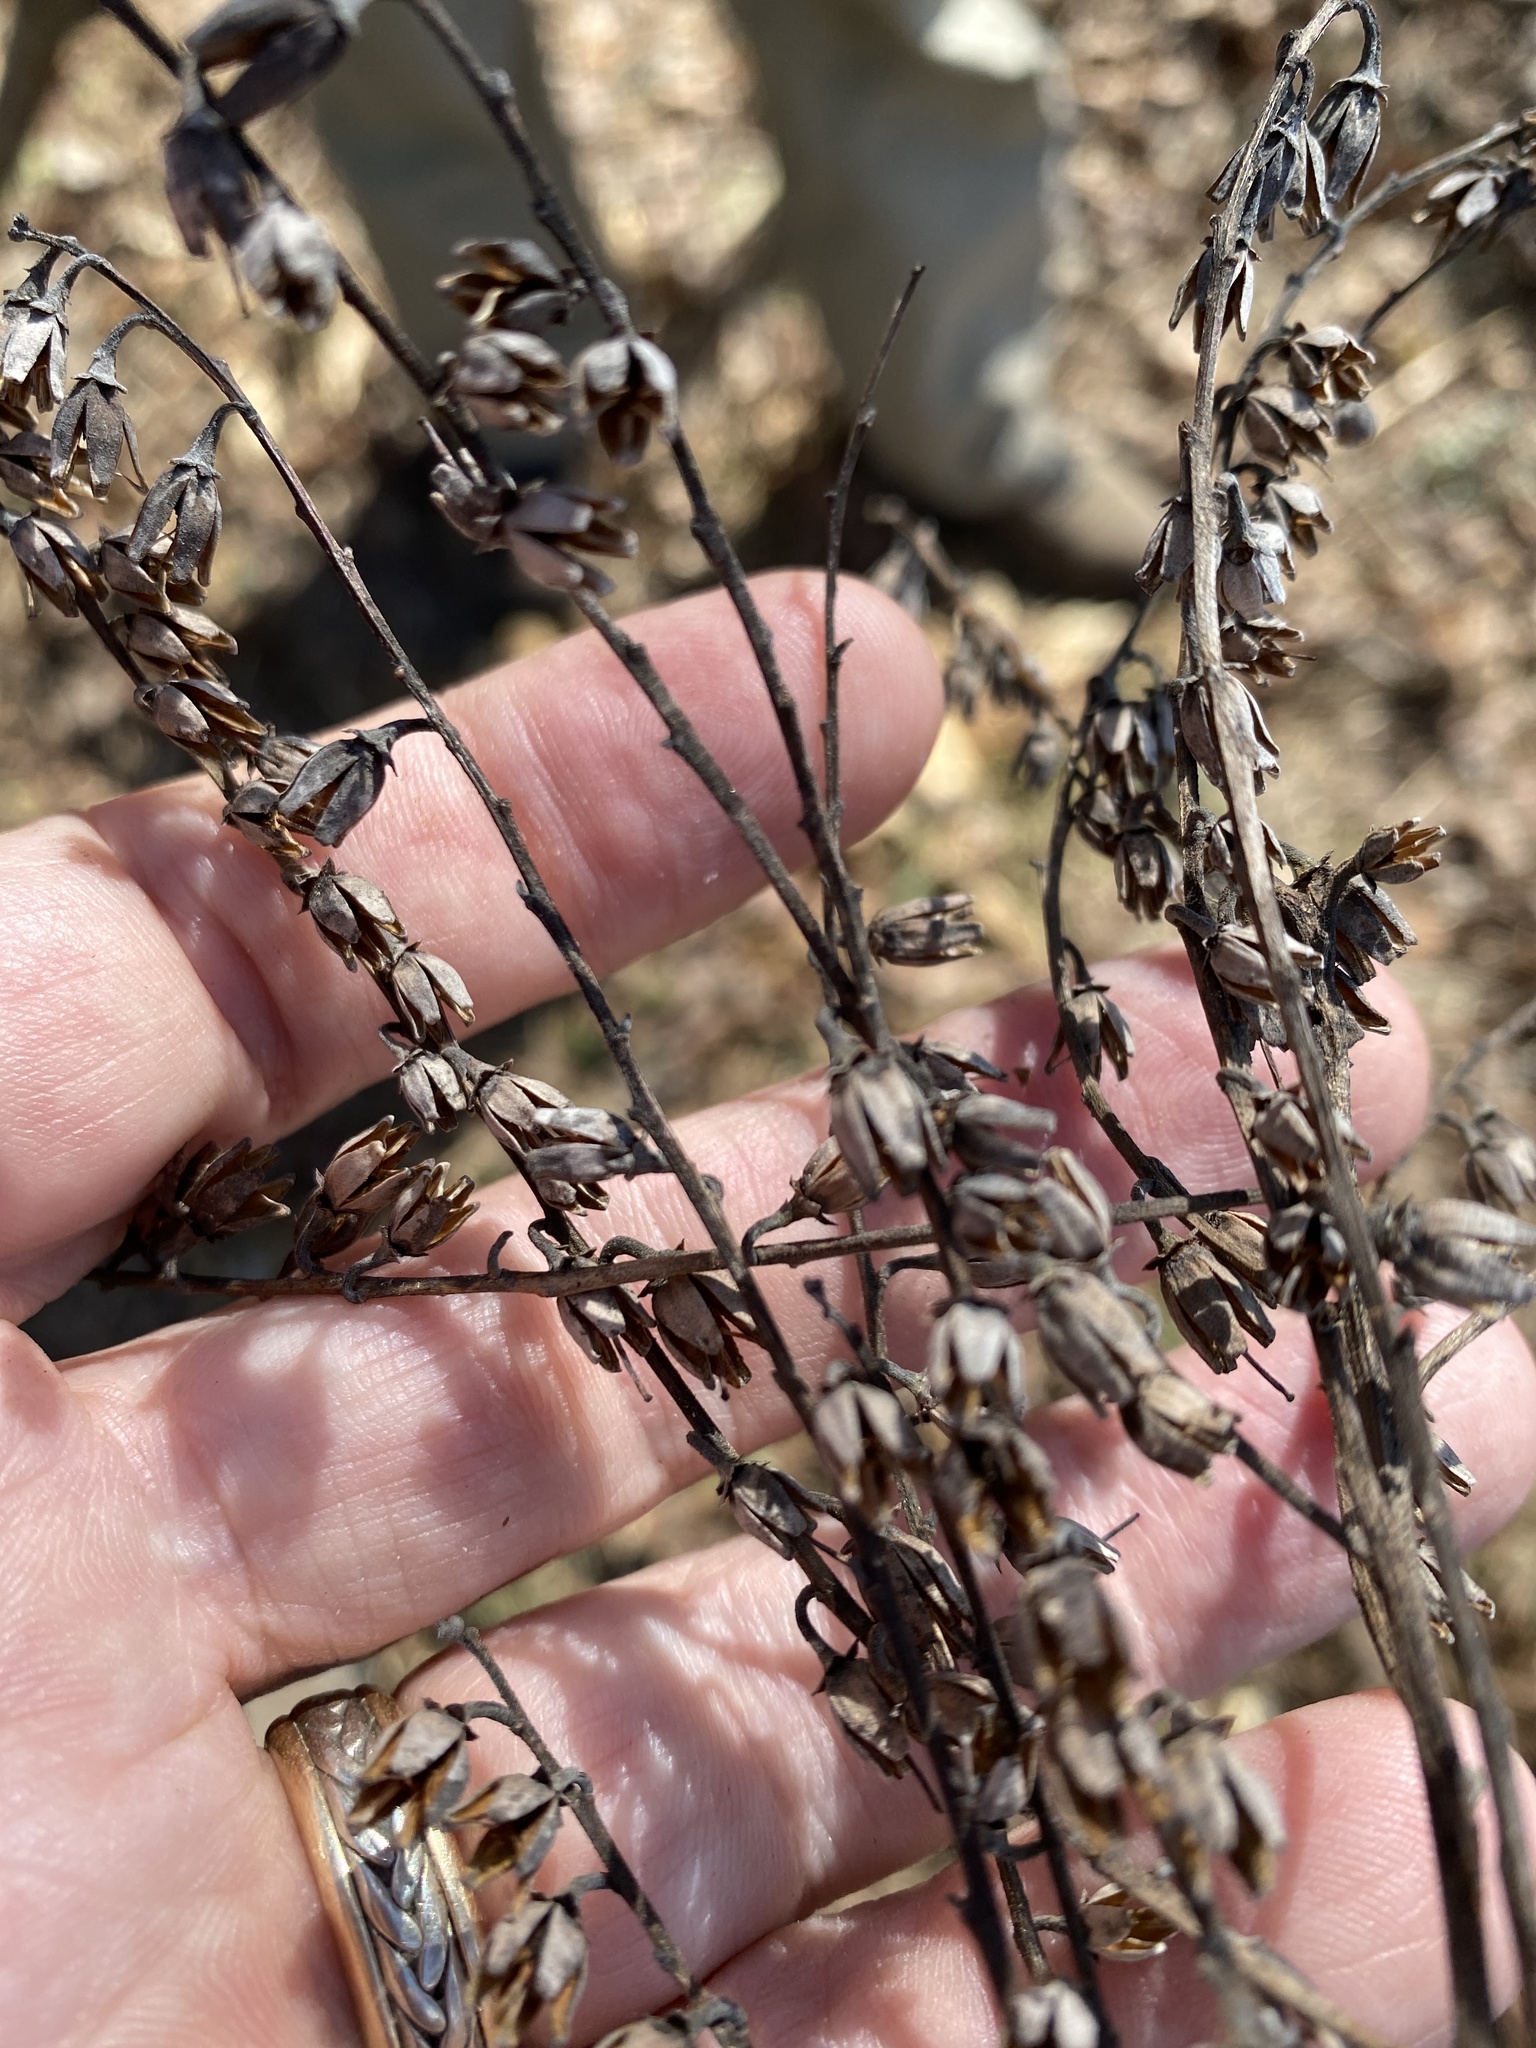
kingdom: Plantae
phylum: Tracheophyta
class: Magnoliopsida
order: Ericales
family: Ericaceae
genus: Oxydendrum
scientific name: Oxydendrum arboreum
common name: Sourwood
